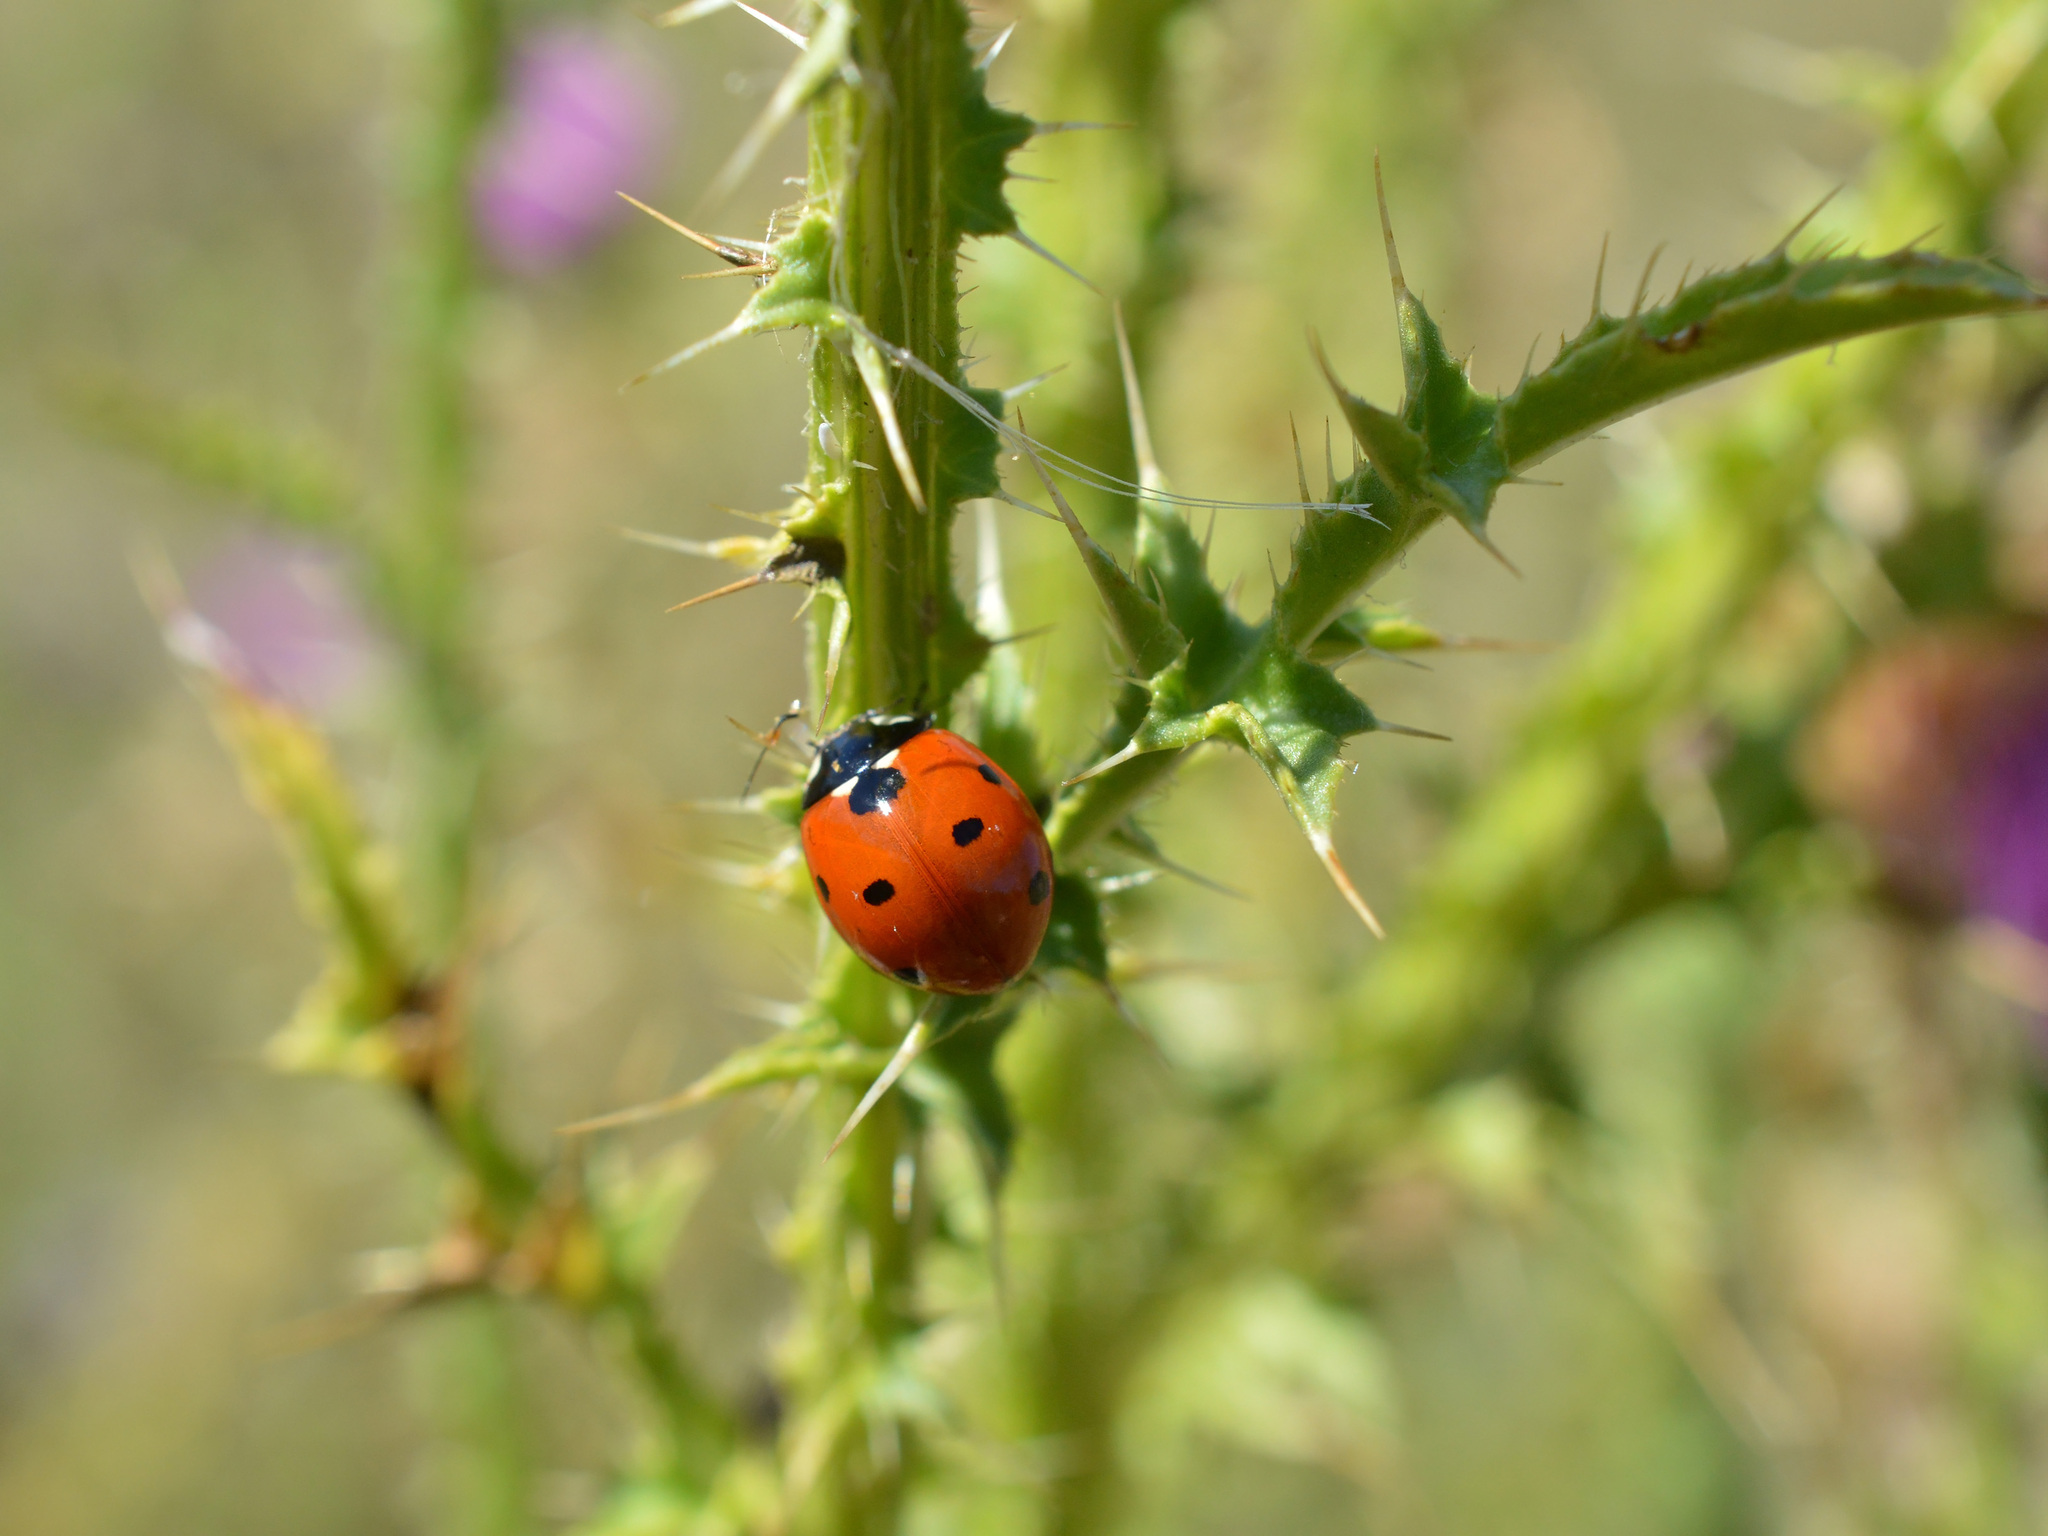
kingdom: Animalia
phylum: Arthropoda
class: Insecta
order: Coleoptera
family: Coccinellidae
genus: Coccinella
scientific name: Coccinella septempunctata
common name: Sevenspotted lady beetle
